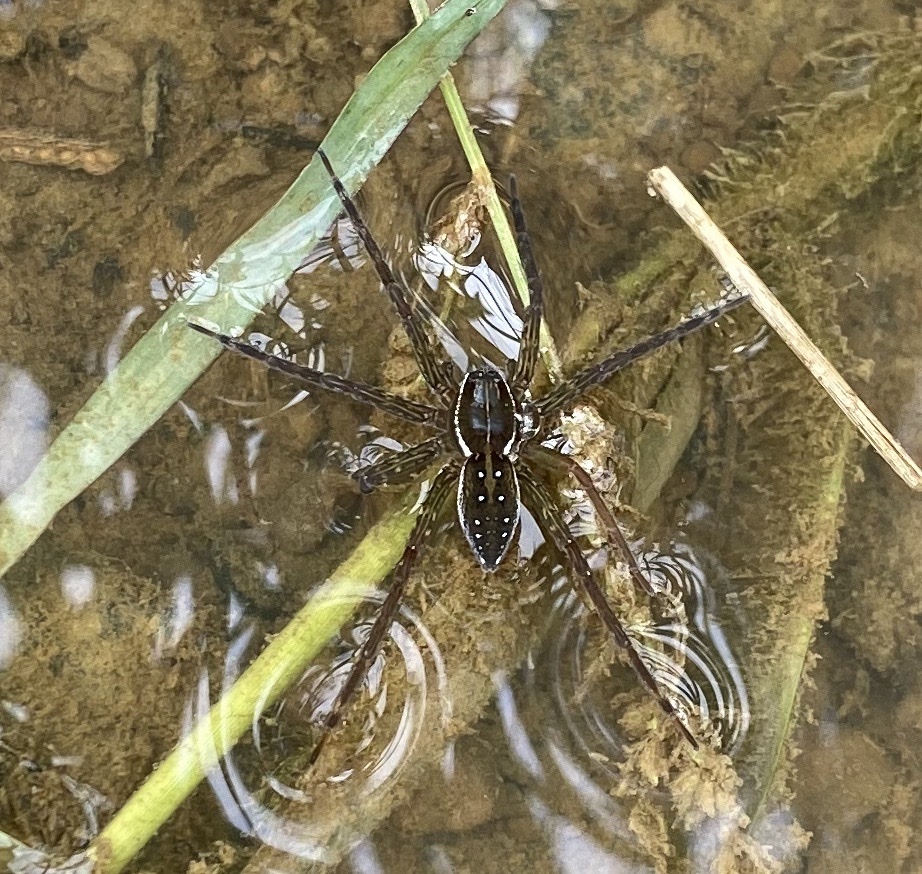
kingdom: Animalia
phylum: Arthropoda
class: Arachnida
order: Araneae
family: Pisauridae
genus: Dolomedes
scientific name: Dolomedes triton
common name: Six-spotted fishing spider
